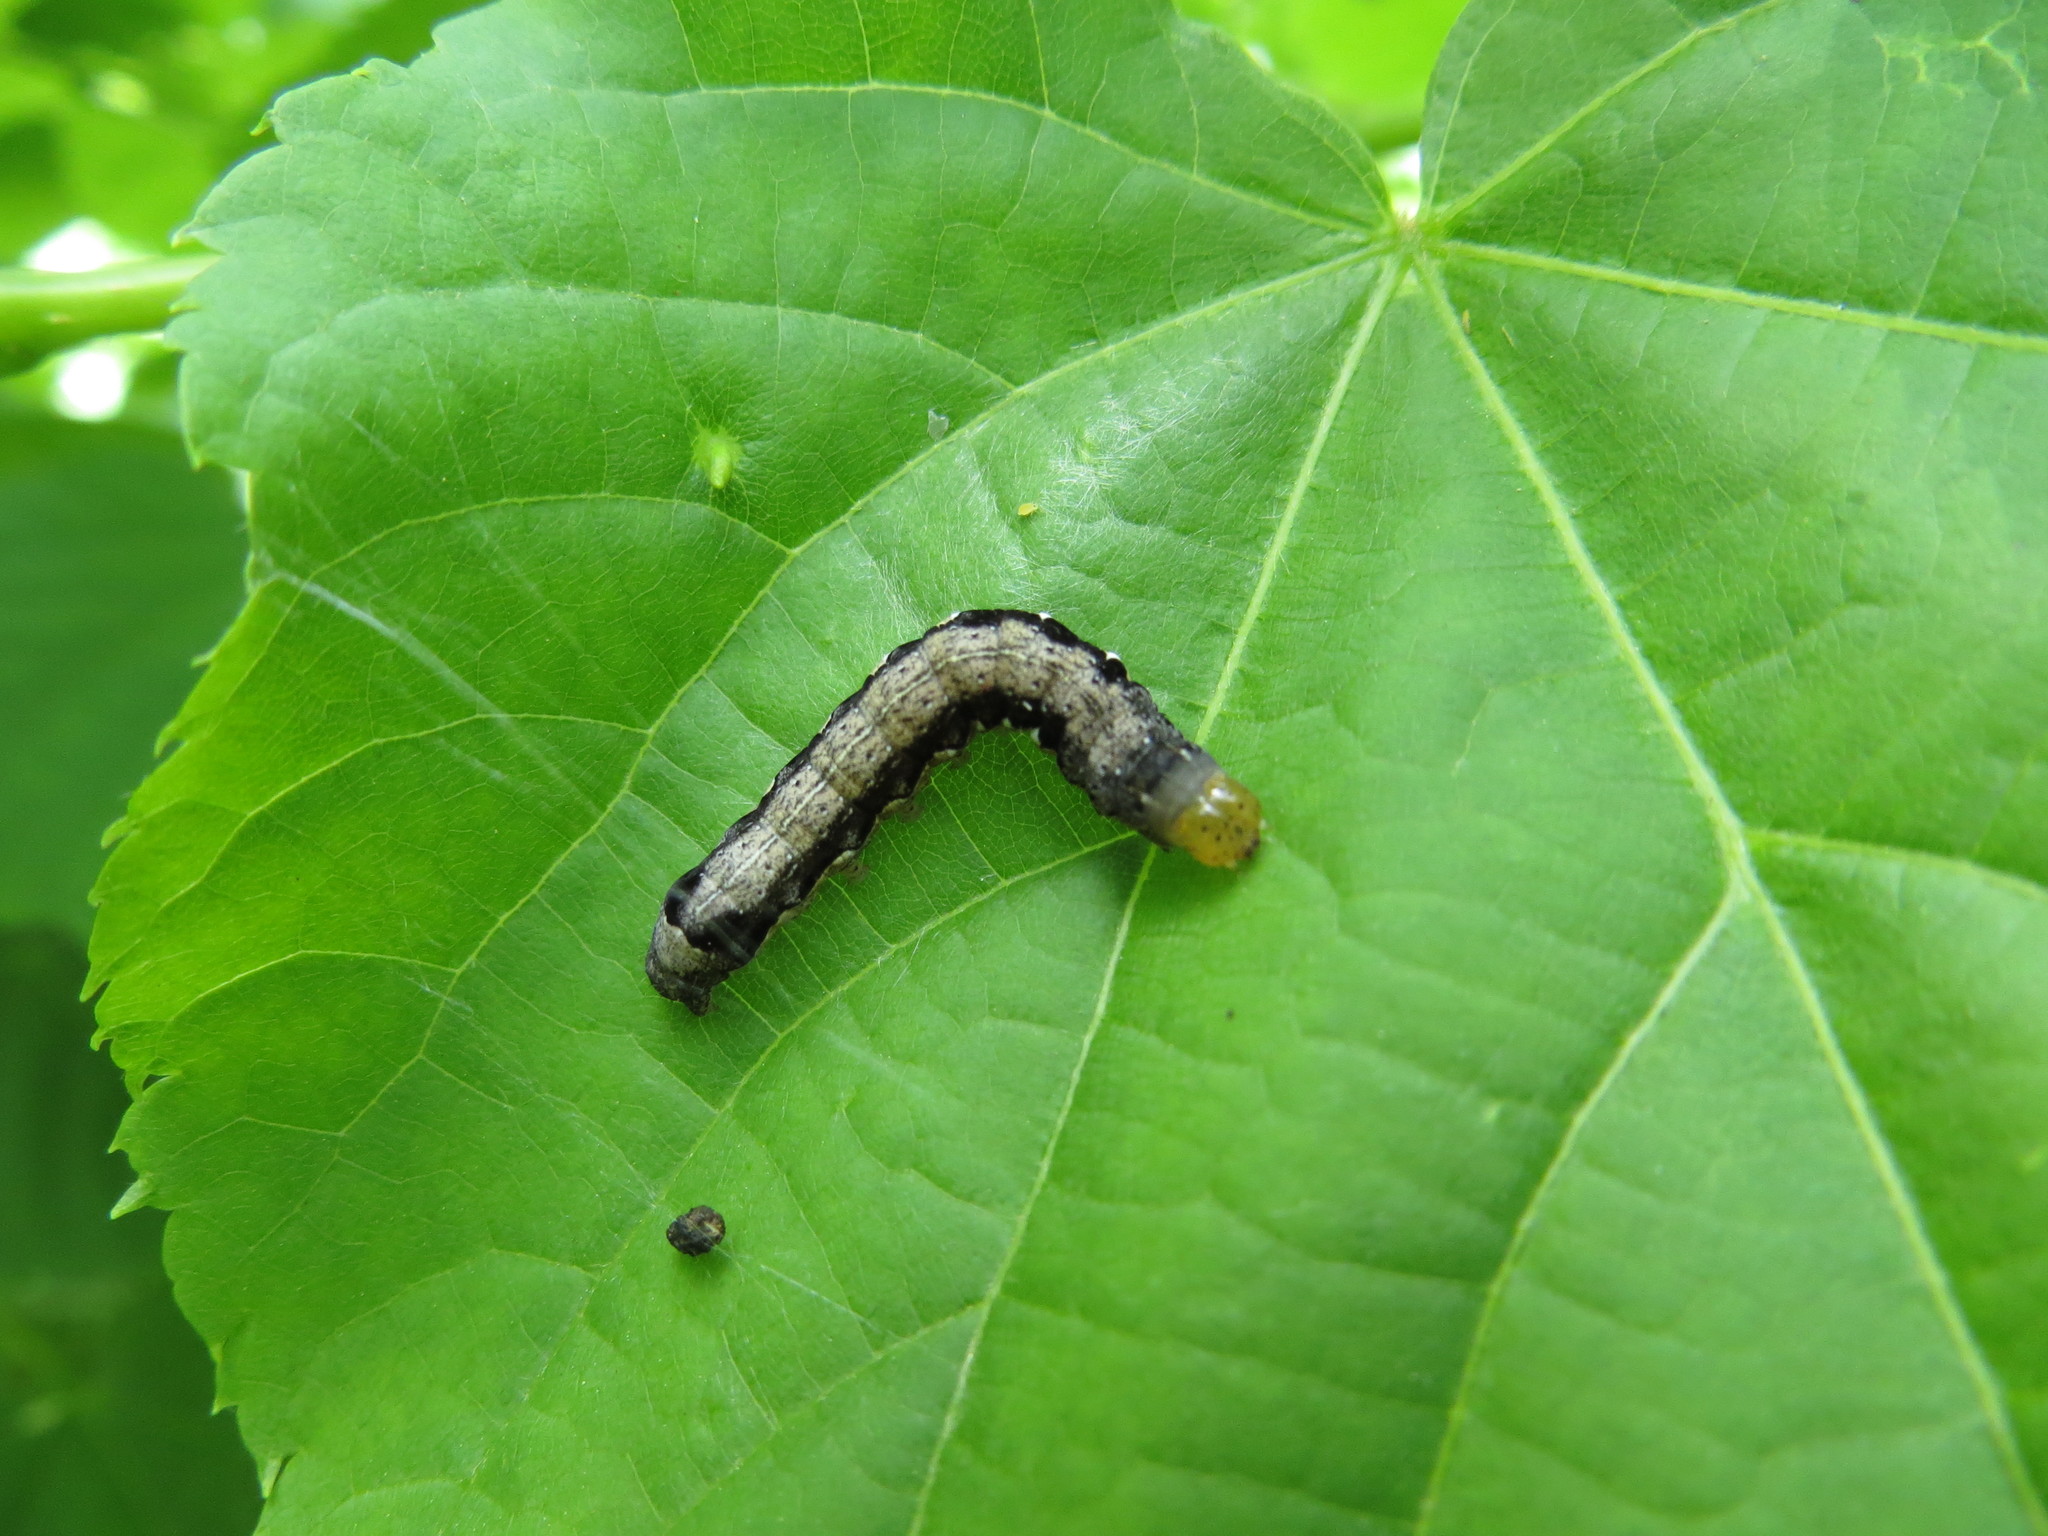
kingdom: Animalia
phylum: Arthropoda
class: Insecta
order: Lepidoptera
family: Noctuidae
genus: Anorthoa
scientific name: Anorthoa munda
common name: Twin-spotted quaker
